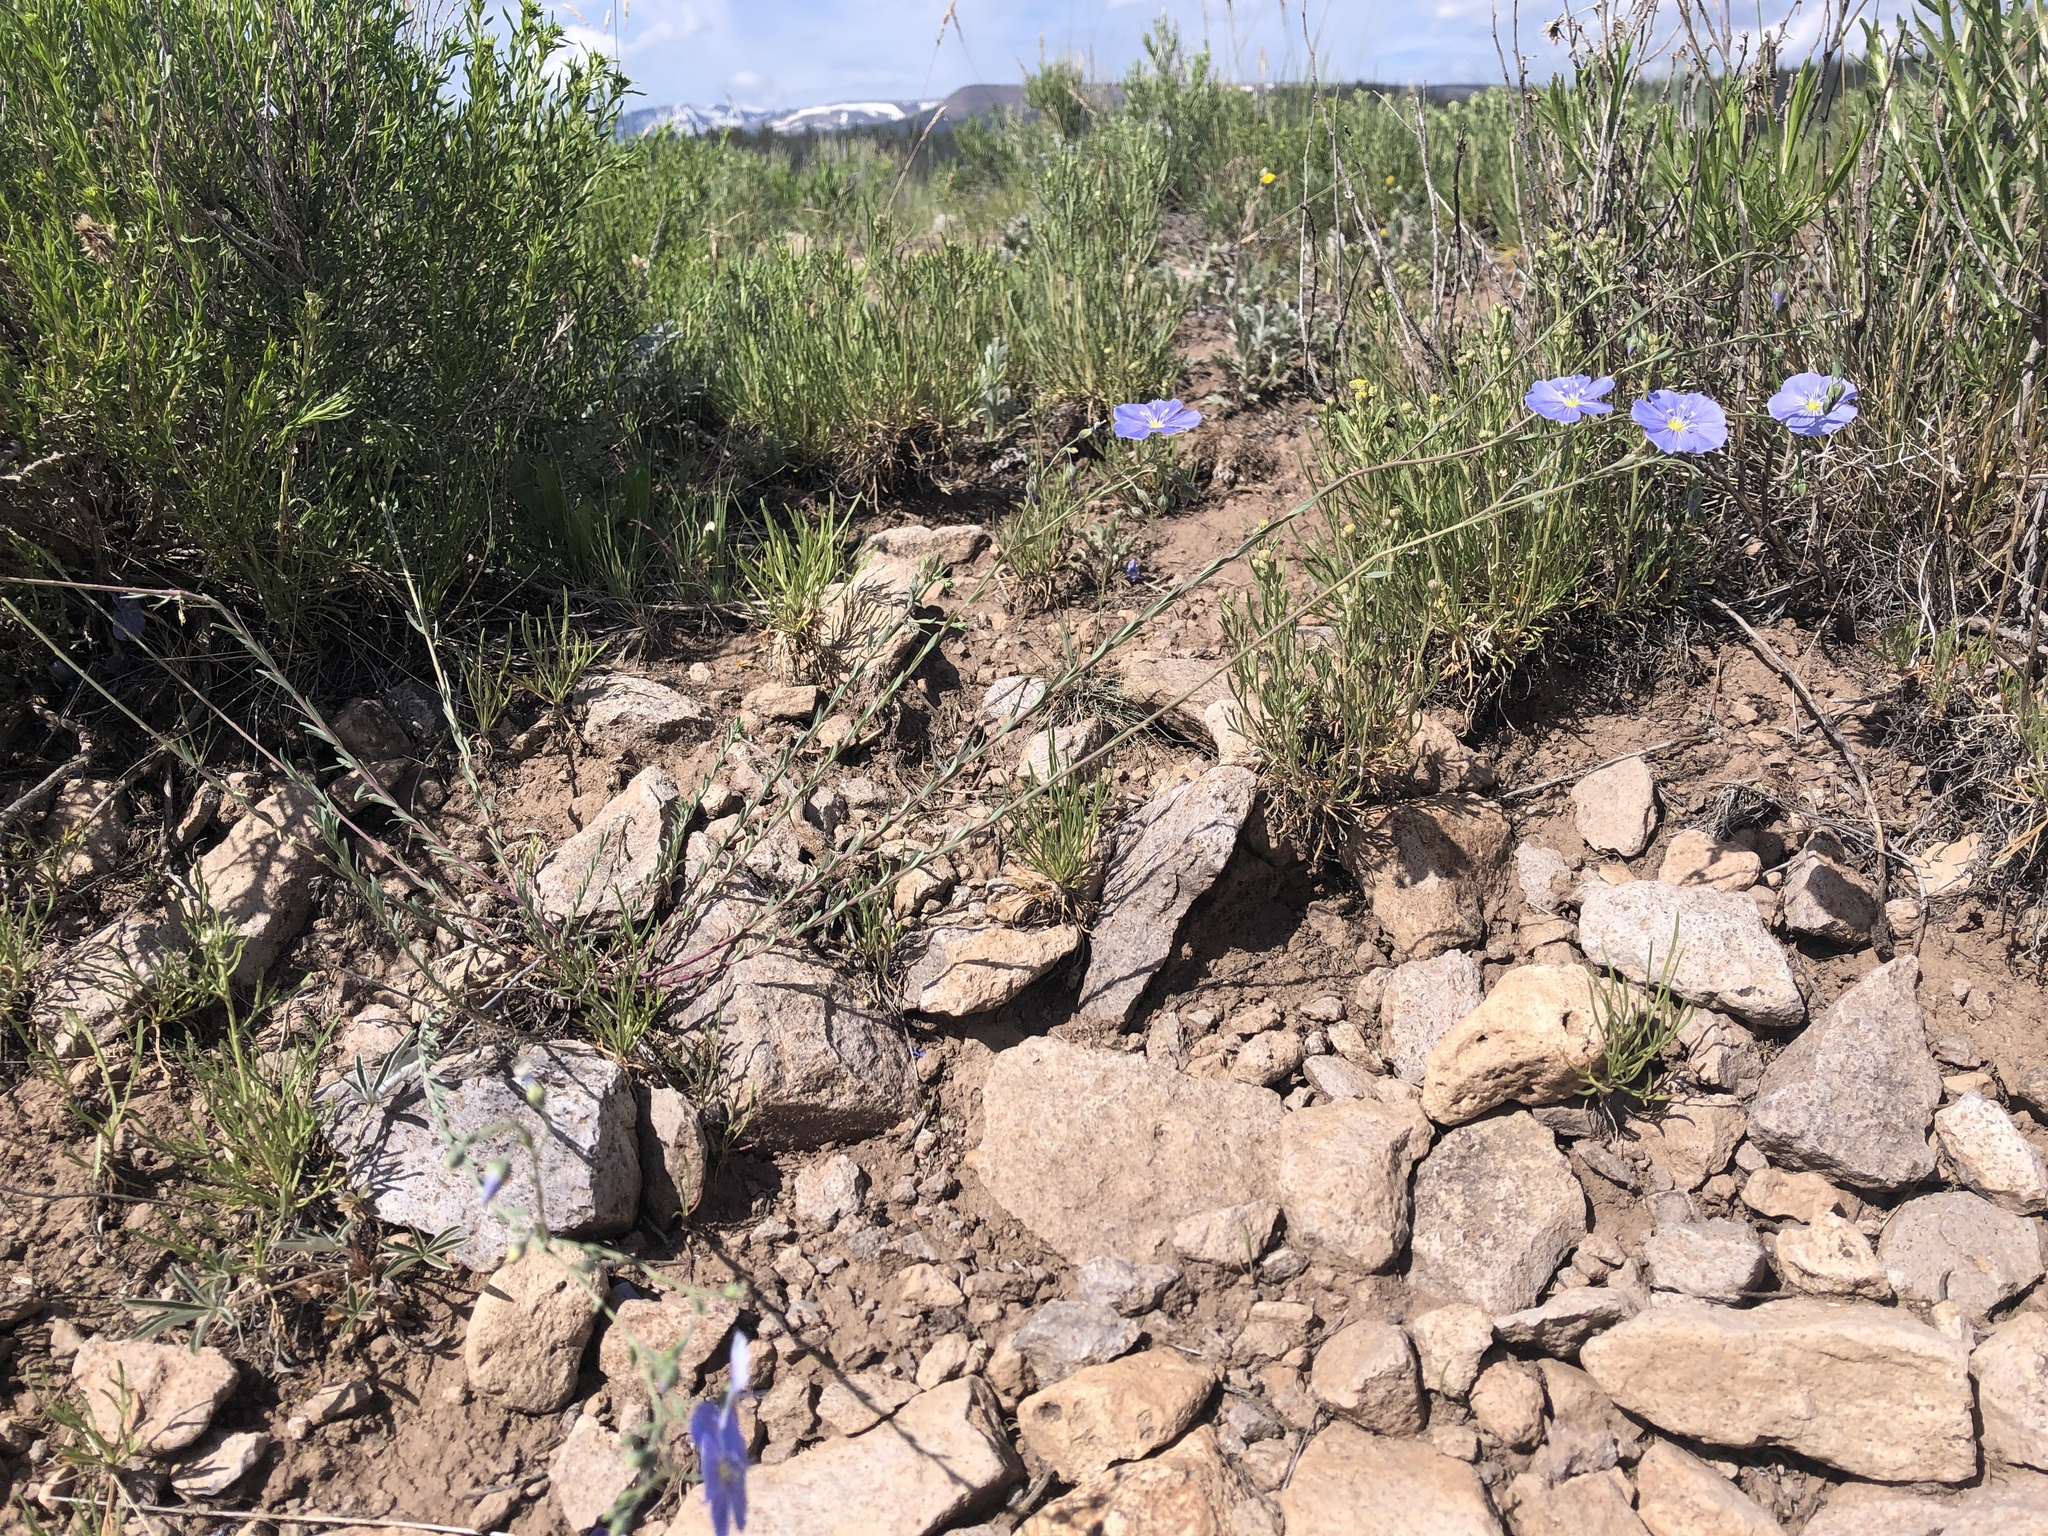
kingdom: Plantae
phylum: Tracheophyta
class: Magnoliopsida
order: Malpighiales
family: Linaceae
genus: Linum
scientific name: Linum lewisii
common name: Prairie flax
